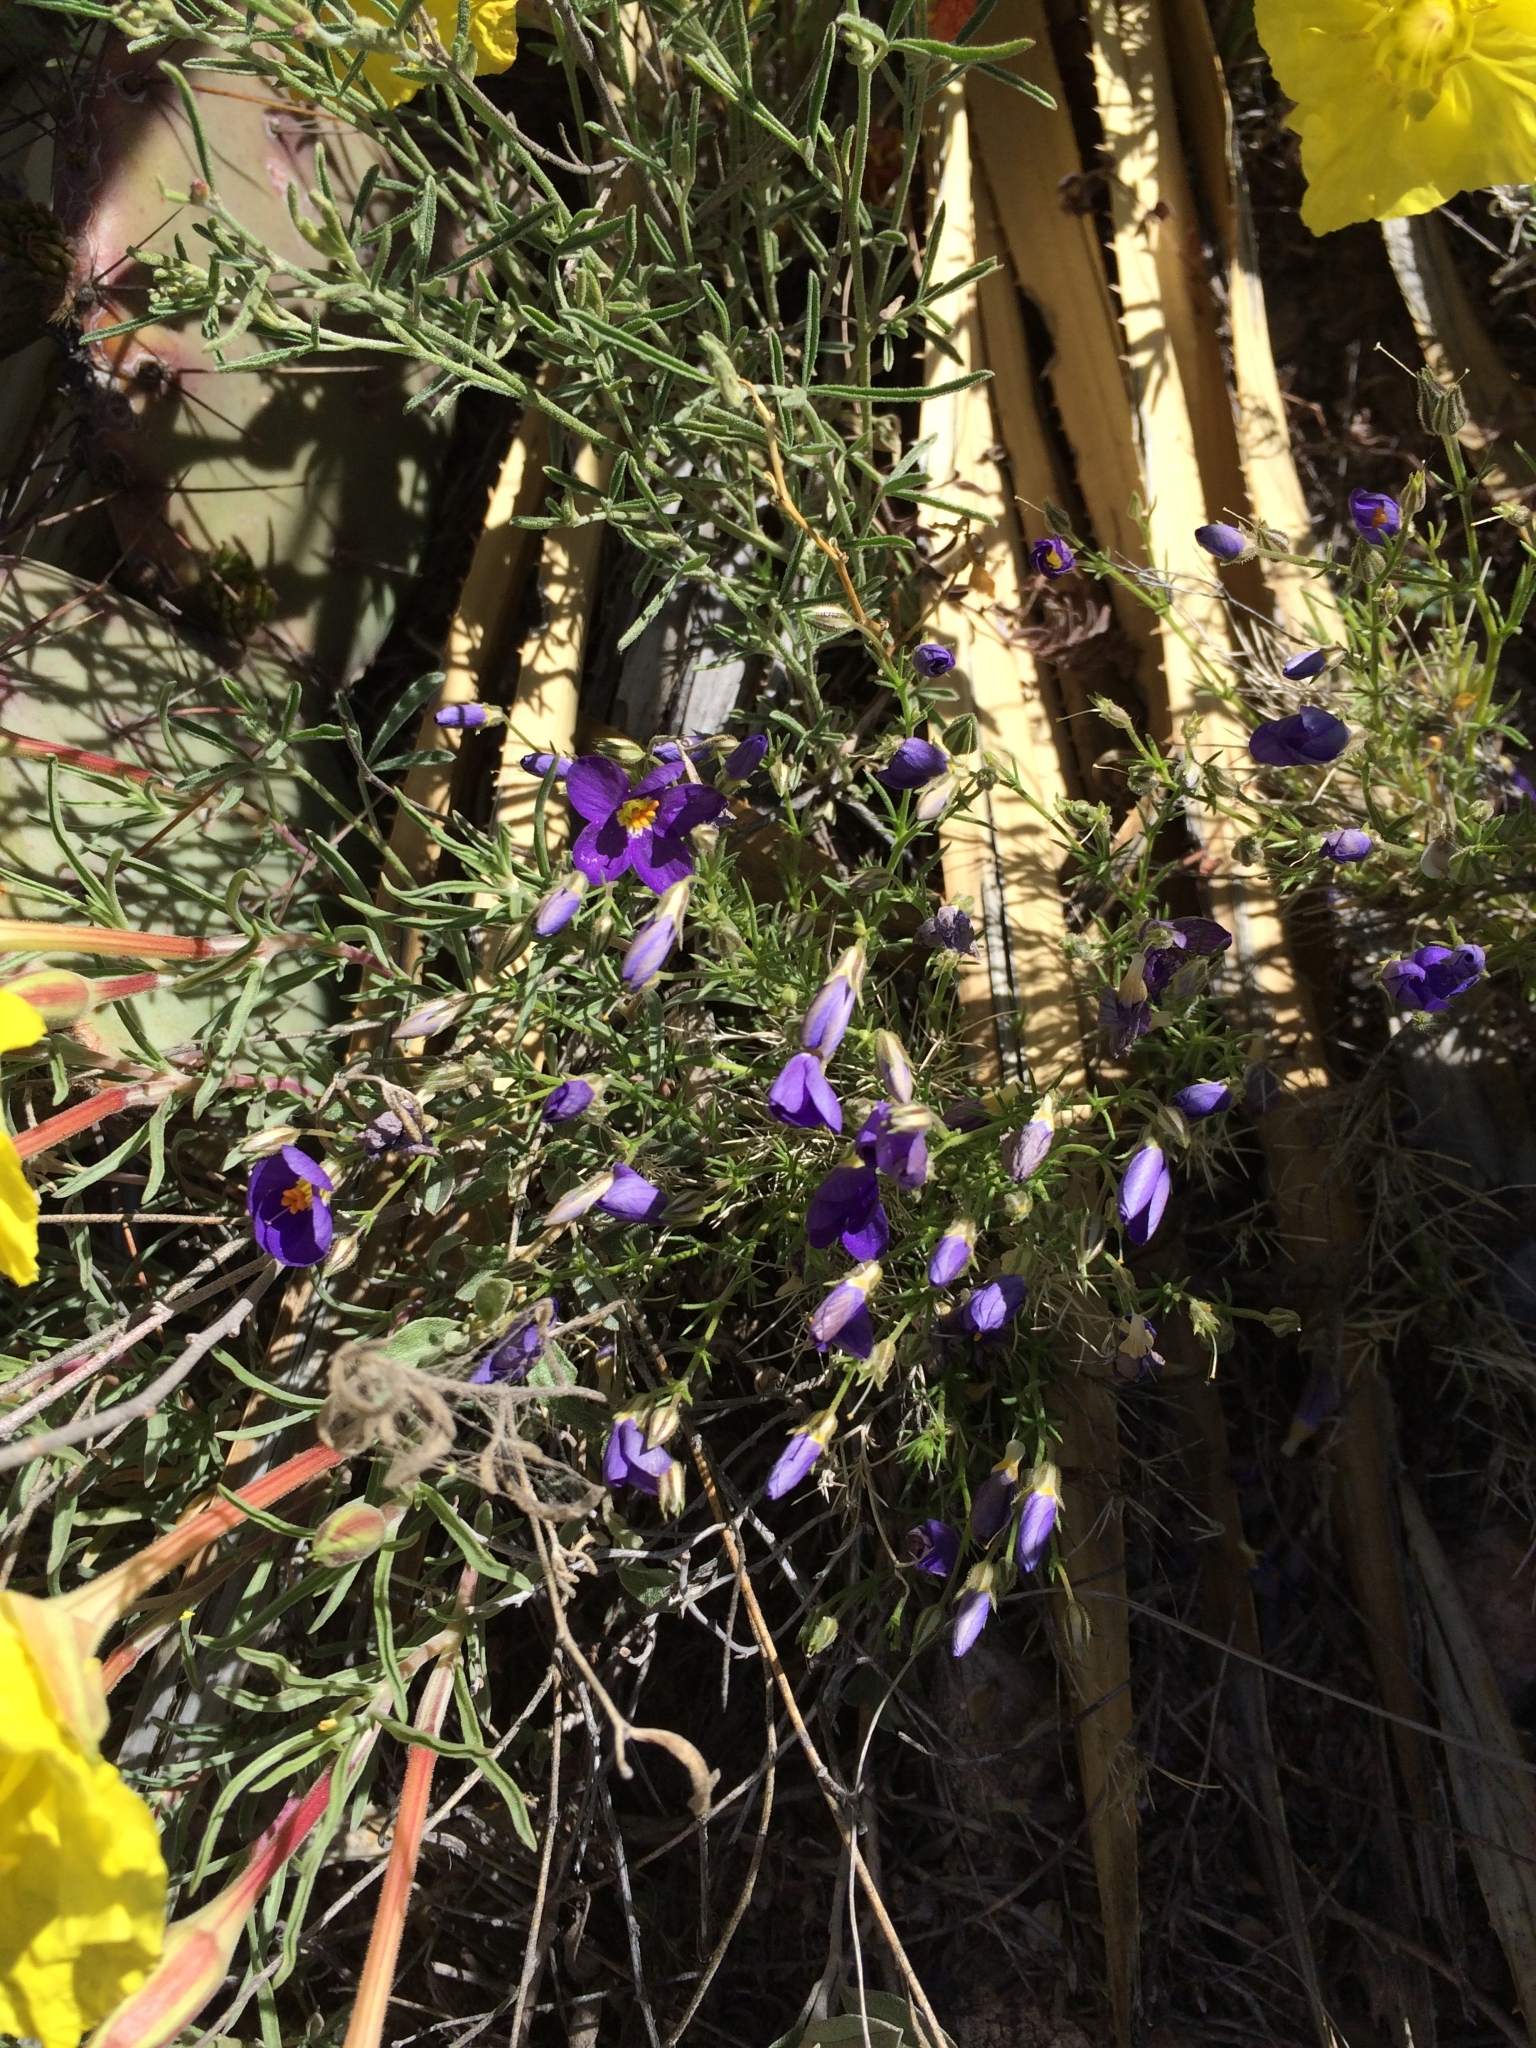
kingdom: Plantae
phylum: Tracheophyta
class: Magnoliopsida
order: Ericales
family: Polemoniaceae
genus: Giliastrum
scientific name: Giliastrum acerosum
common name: Bluebowls
